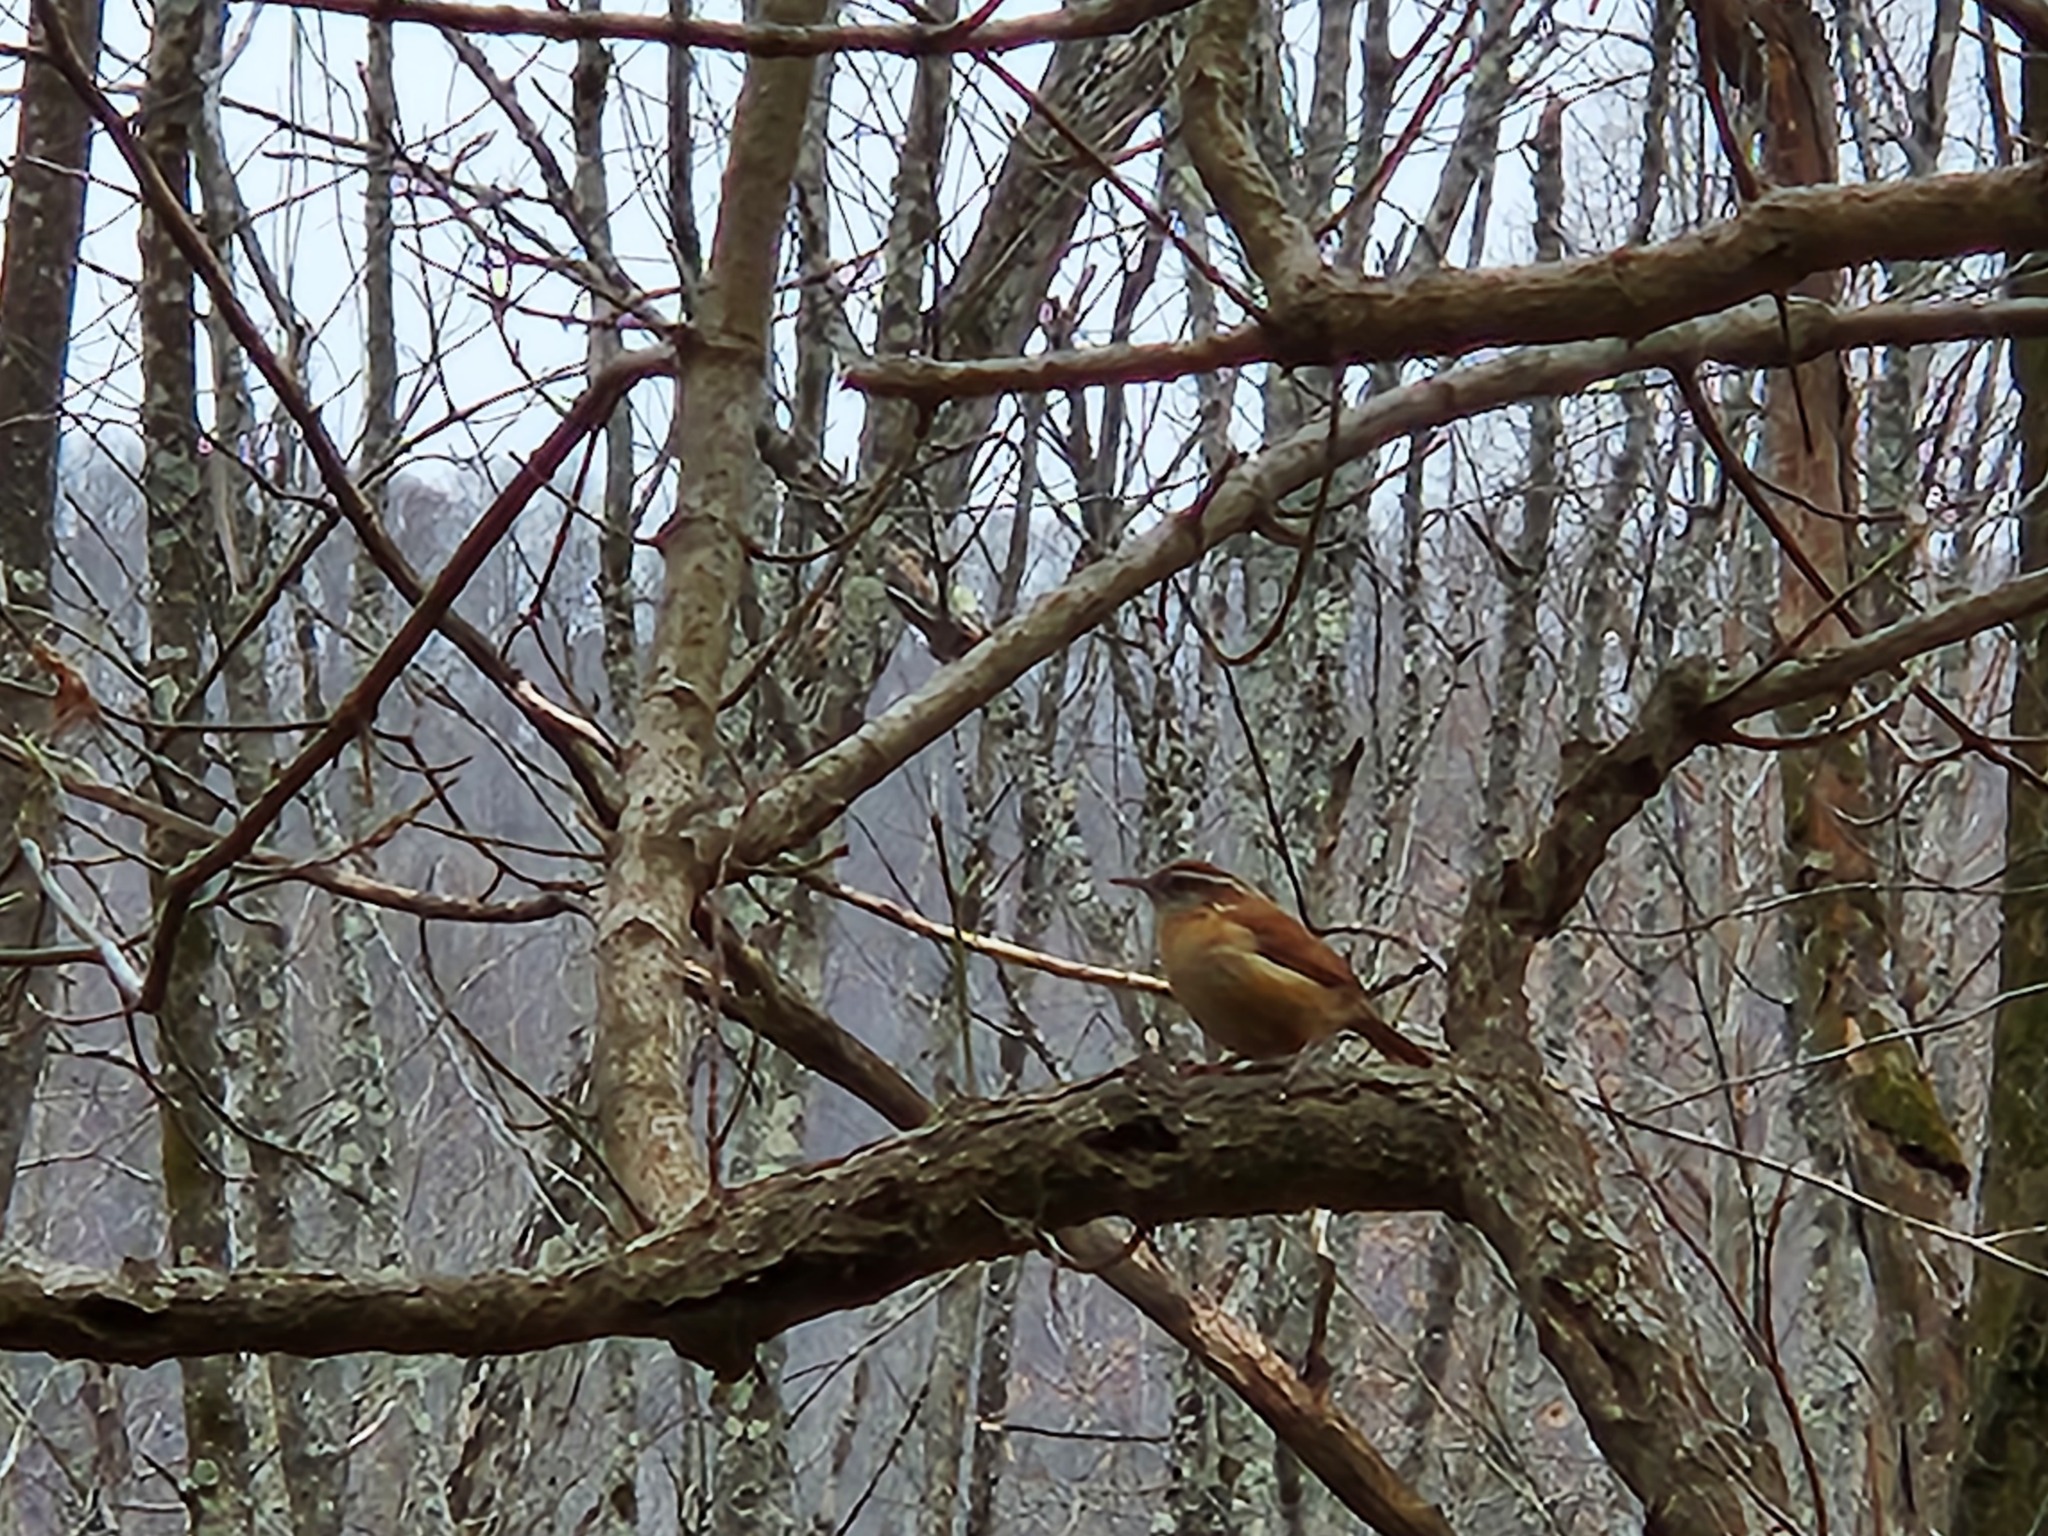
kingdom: Animalia
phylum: Chordata
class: Aves
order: Passeriformes
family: Troglodytidae
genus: Thryothorus
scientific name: Thryothorus ludovicianus
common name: Carolina wren
